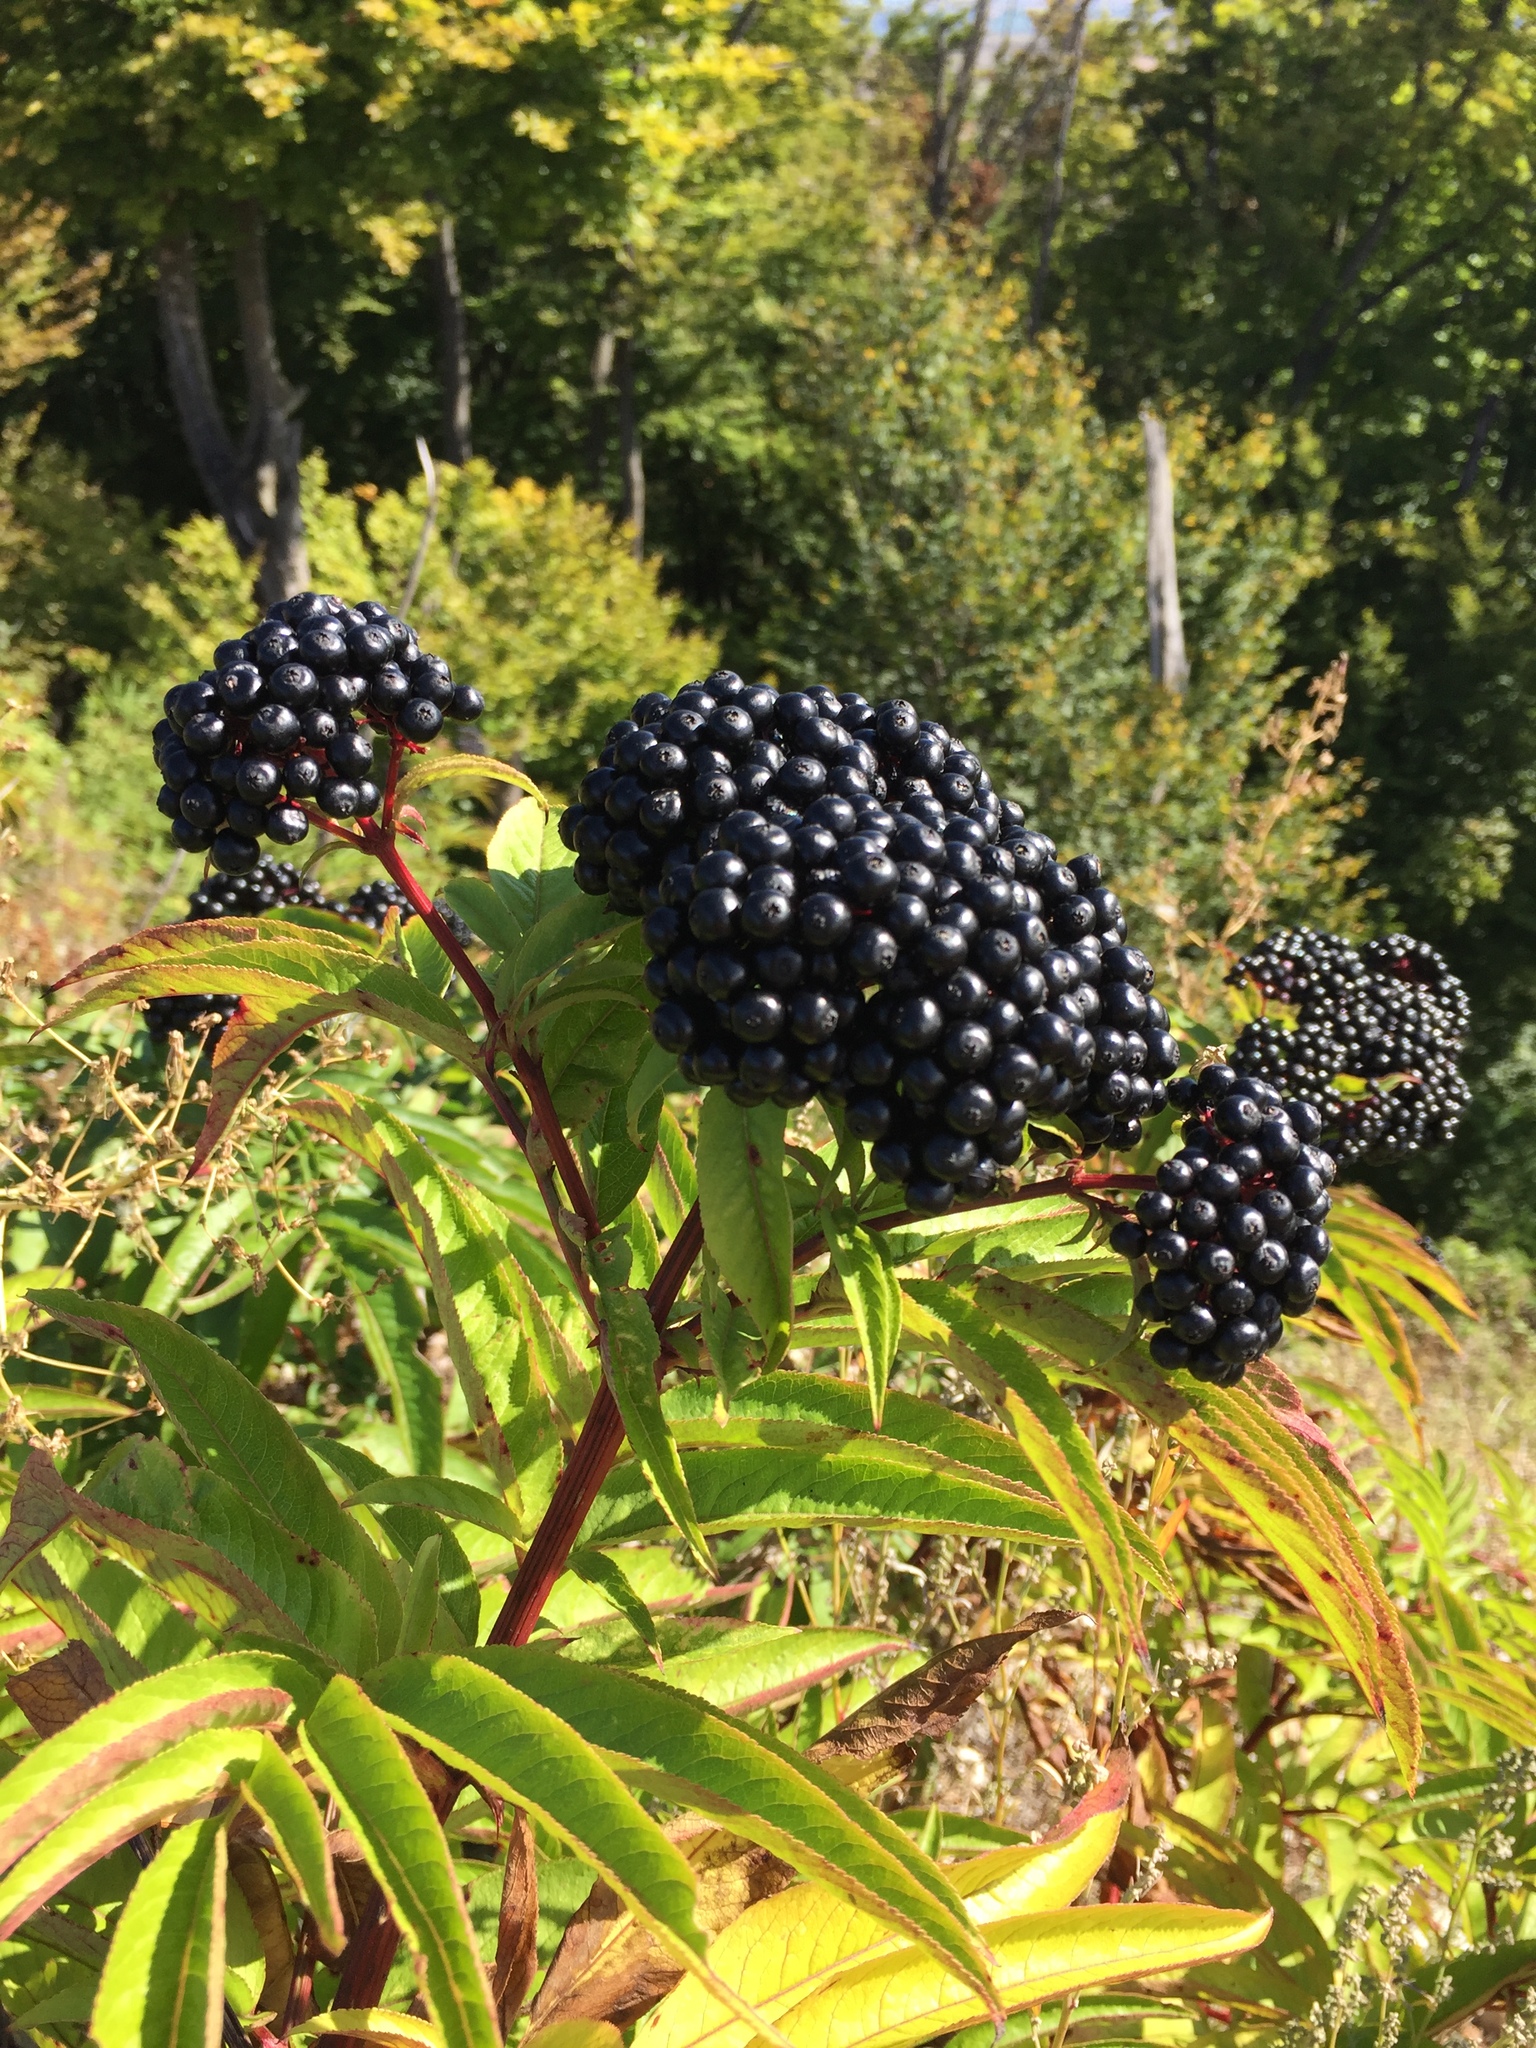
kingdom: Plantae
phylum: Tracheophyta
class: Magnoliopsida
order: Dipsacales
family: Viburnaceae
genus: Sambucus
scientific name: Sambucus ebulus
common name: Dwarf elder
